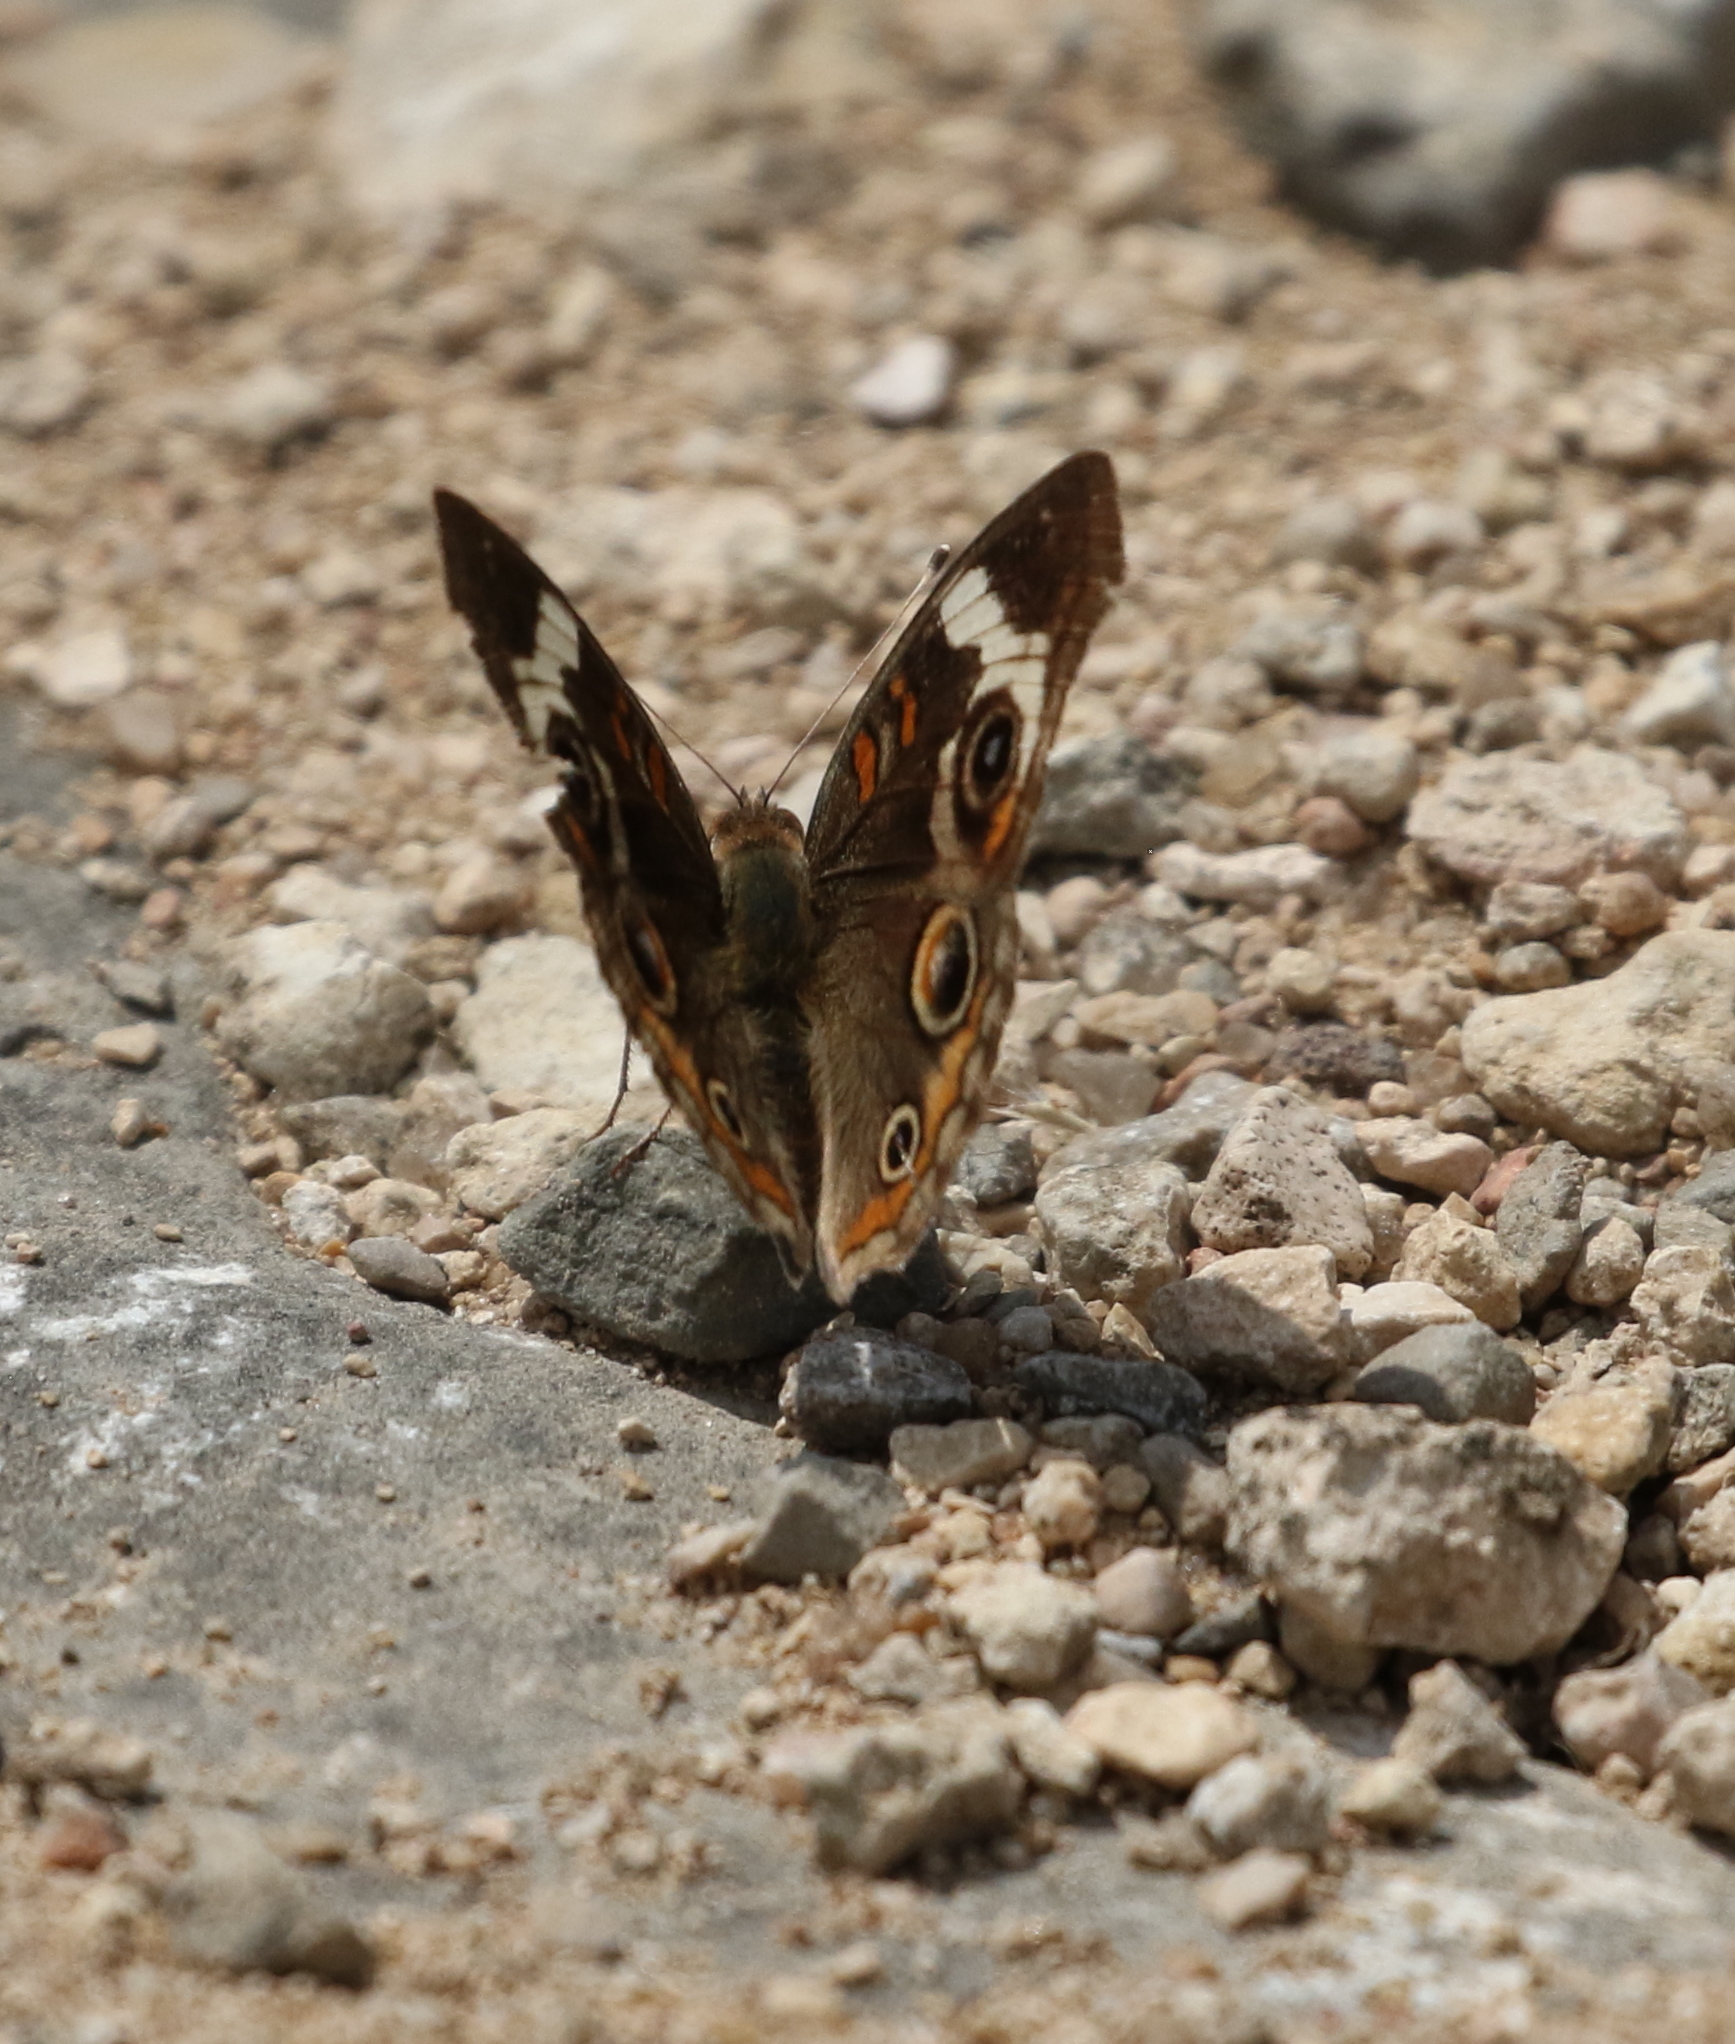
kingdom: Animalia
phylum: Arthropoda
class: Insecta
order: Lepidoptera
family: Nymphalidae
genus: Junonia
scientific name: Junonia coenia
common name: Common buckeye
